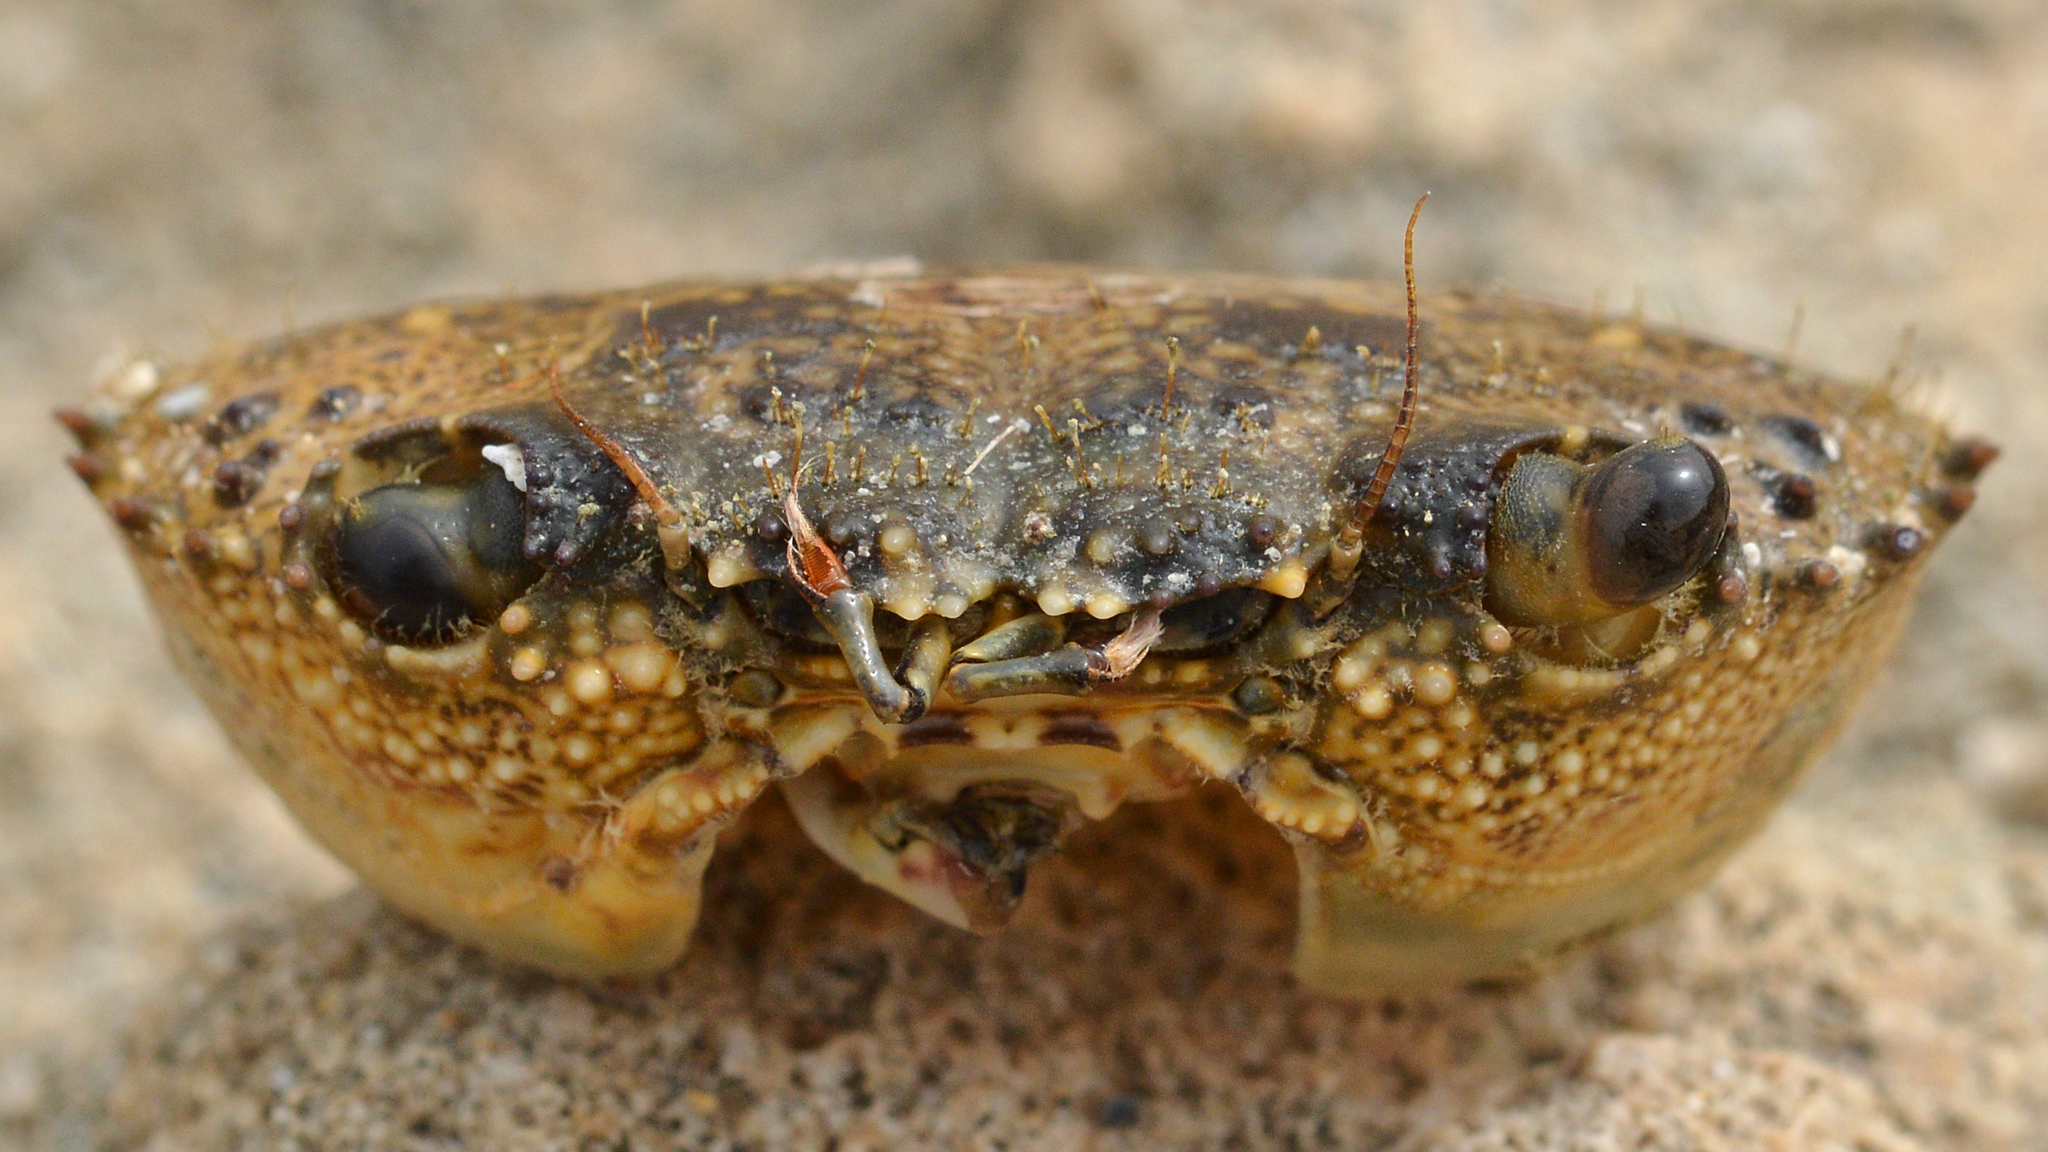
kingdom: Animalia
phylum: Arthropoda
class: Malacostraca
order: Decapoda
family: Eriphiidae
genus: Eriphia
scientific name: Eriphia verrucosa
